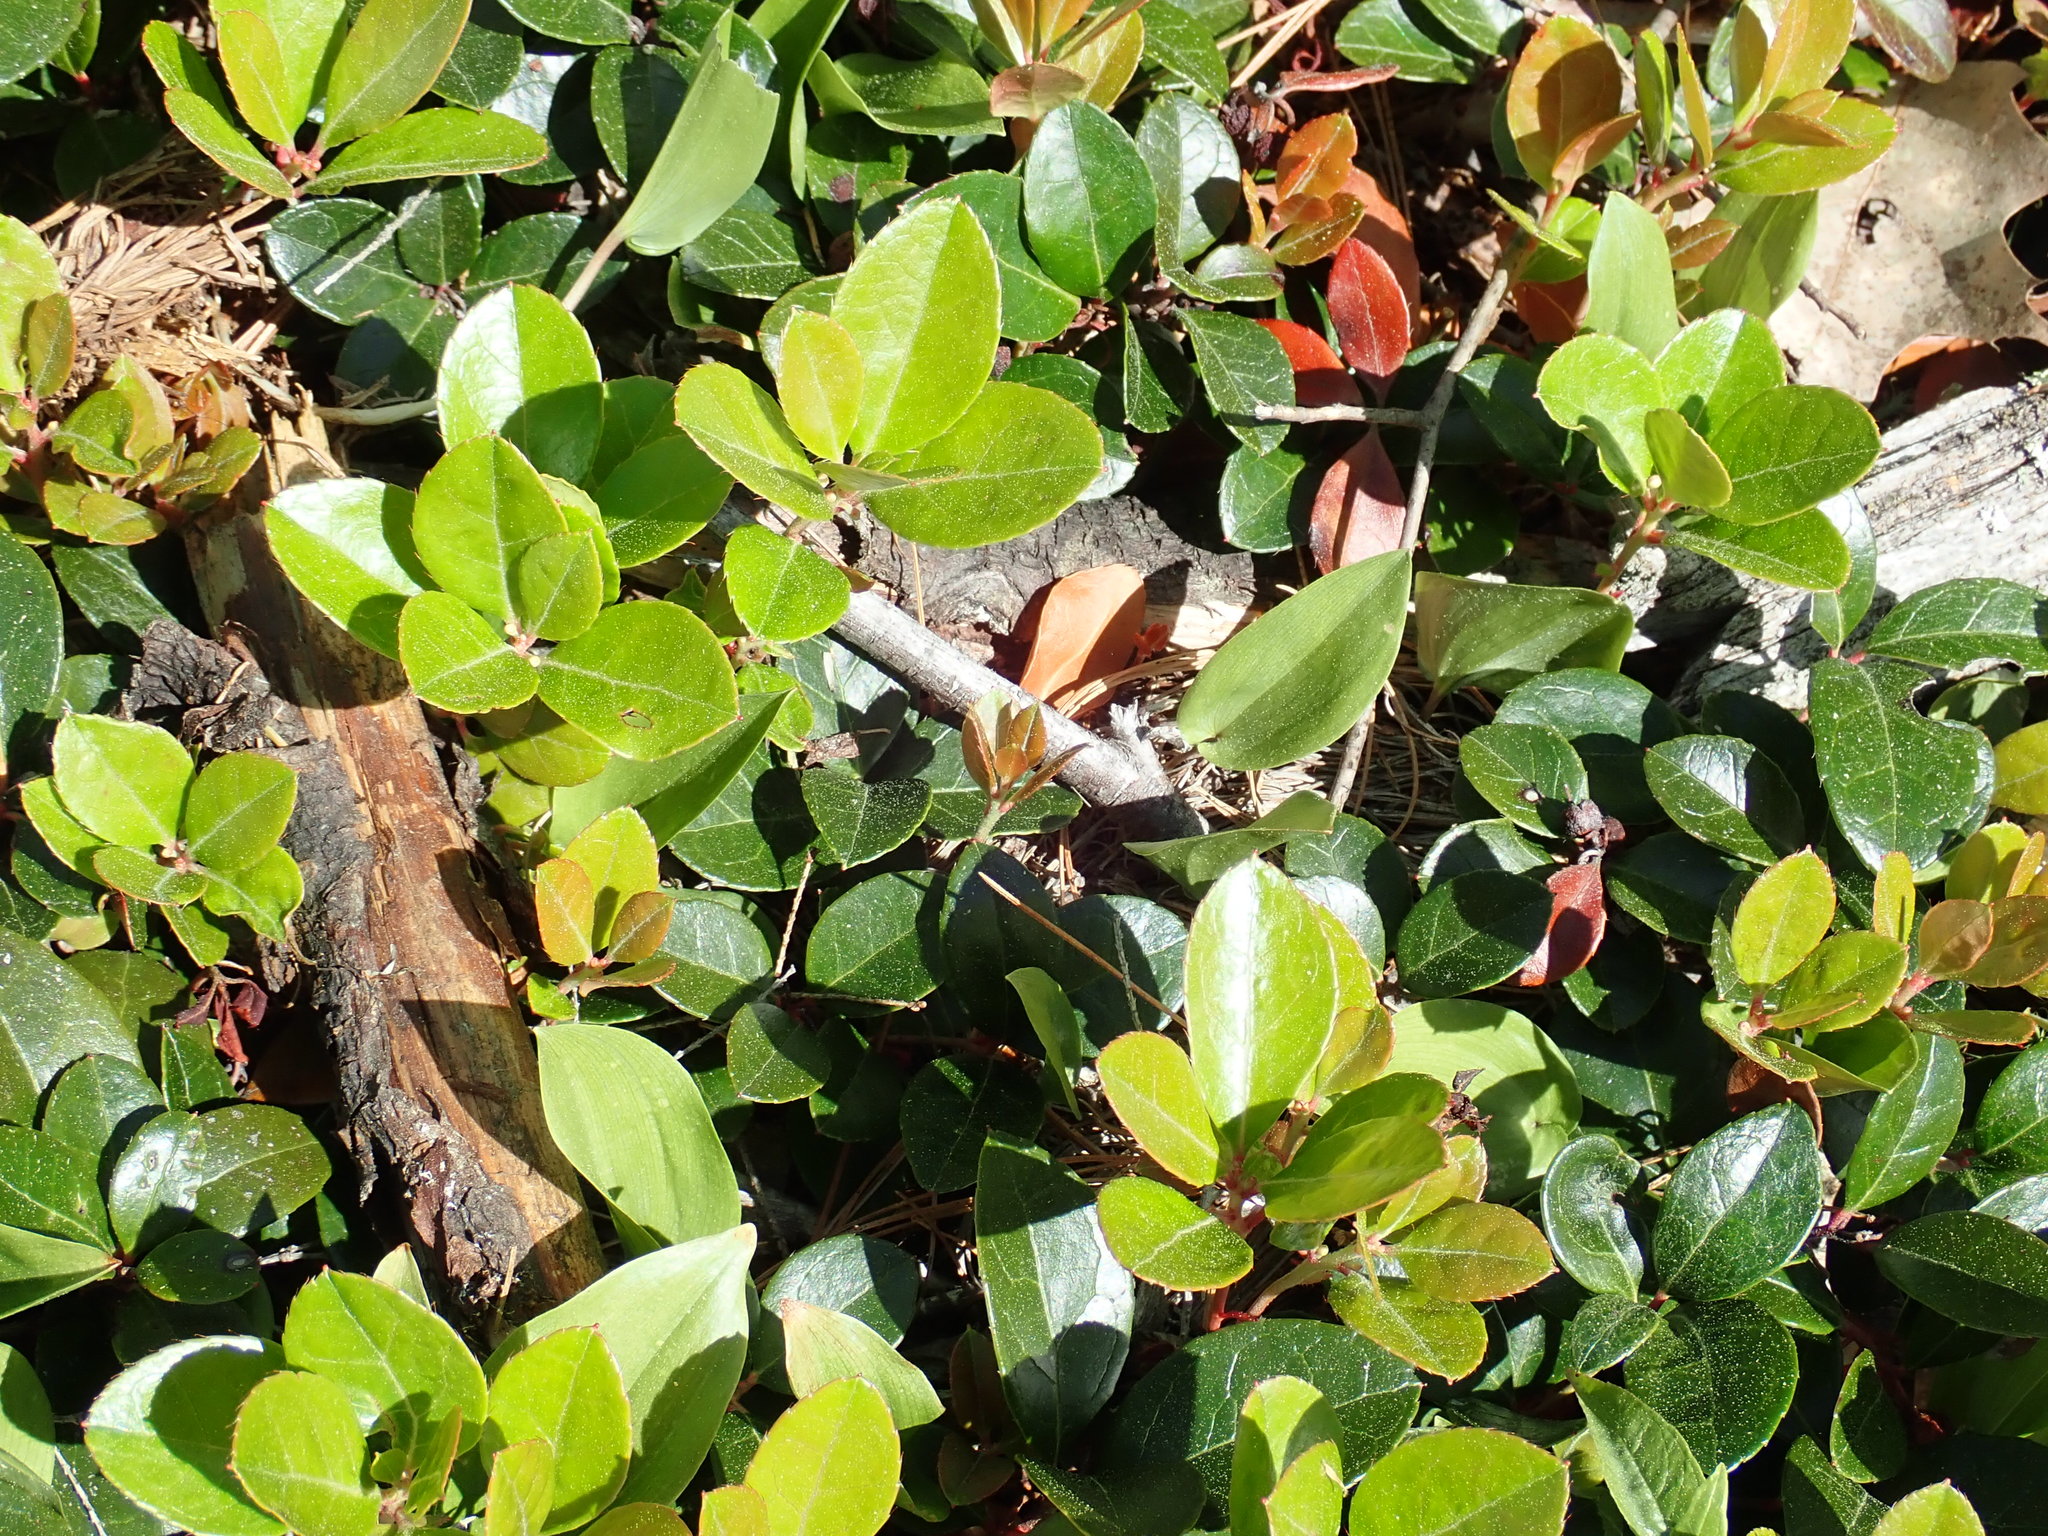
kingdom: Plantae
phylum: Tracheophyta
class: Magnoliopsida
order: Ericales
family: Ericaceae
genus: Gaultheria
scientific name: Gaultheria procumbens
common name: Checkerberry
